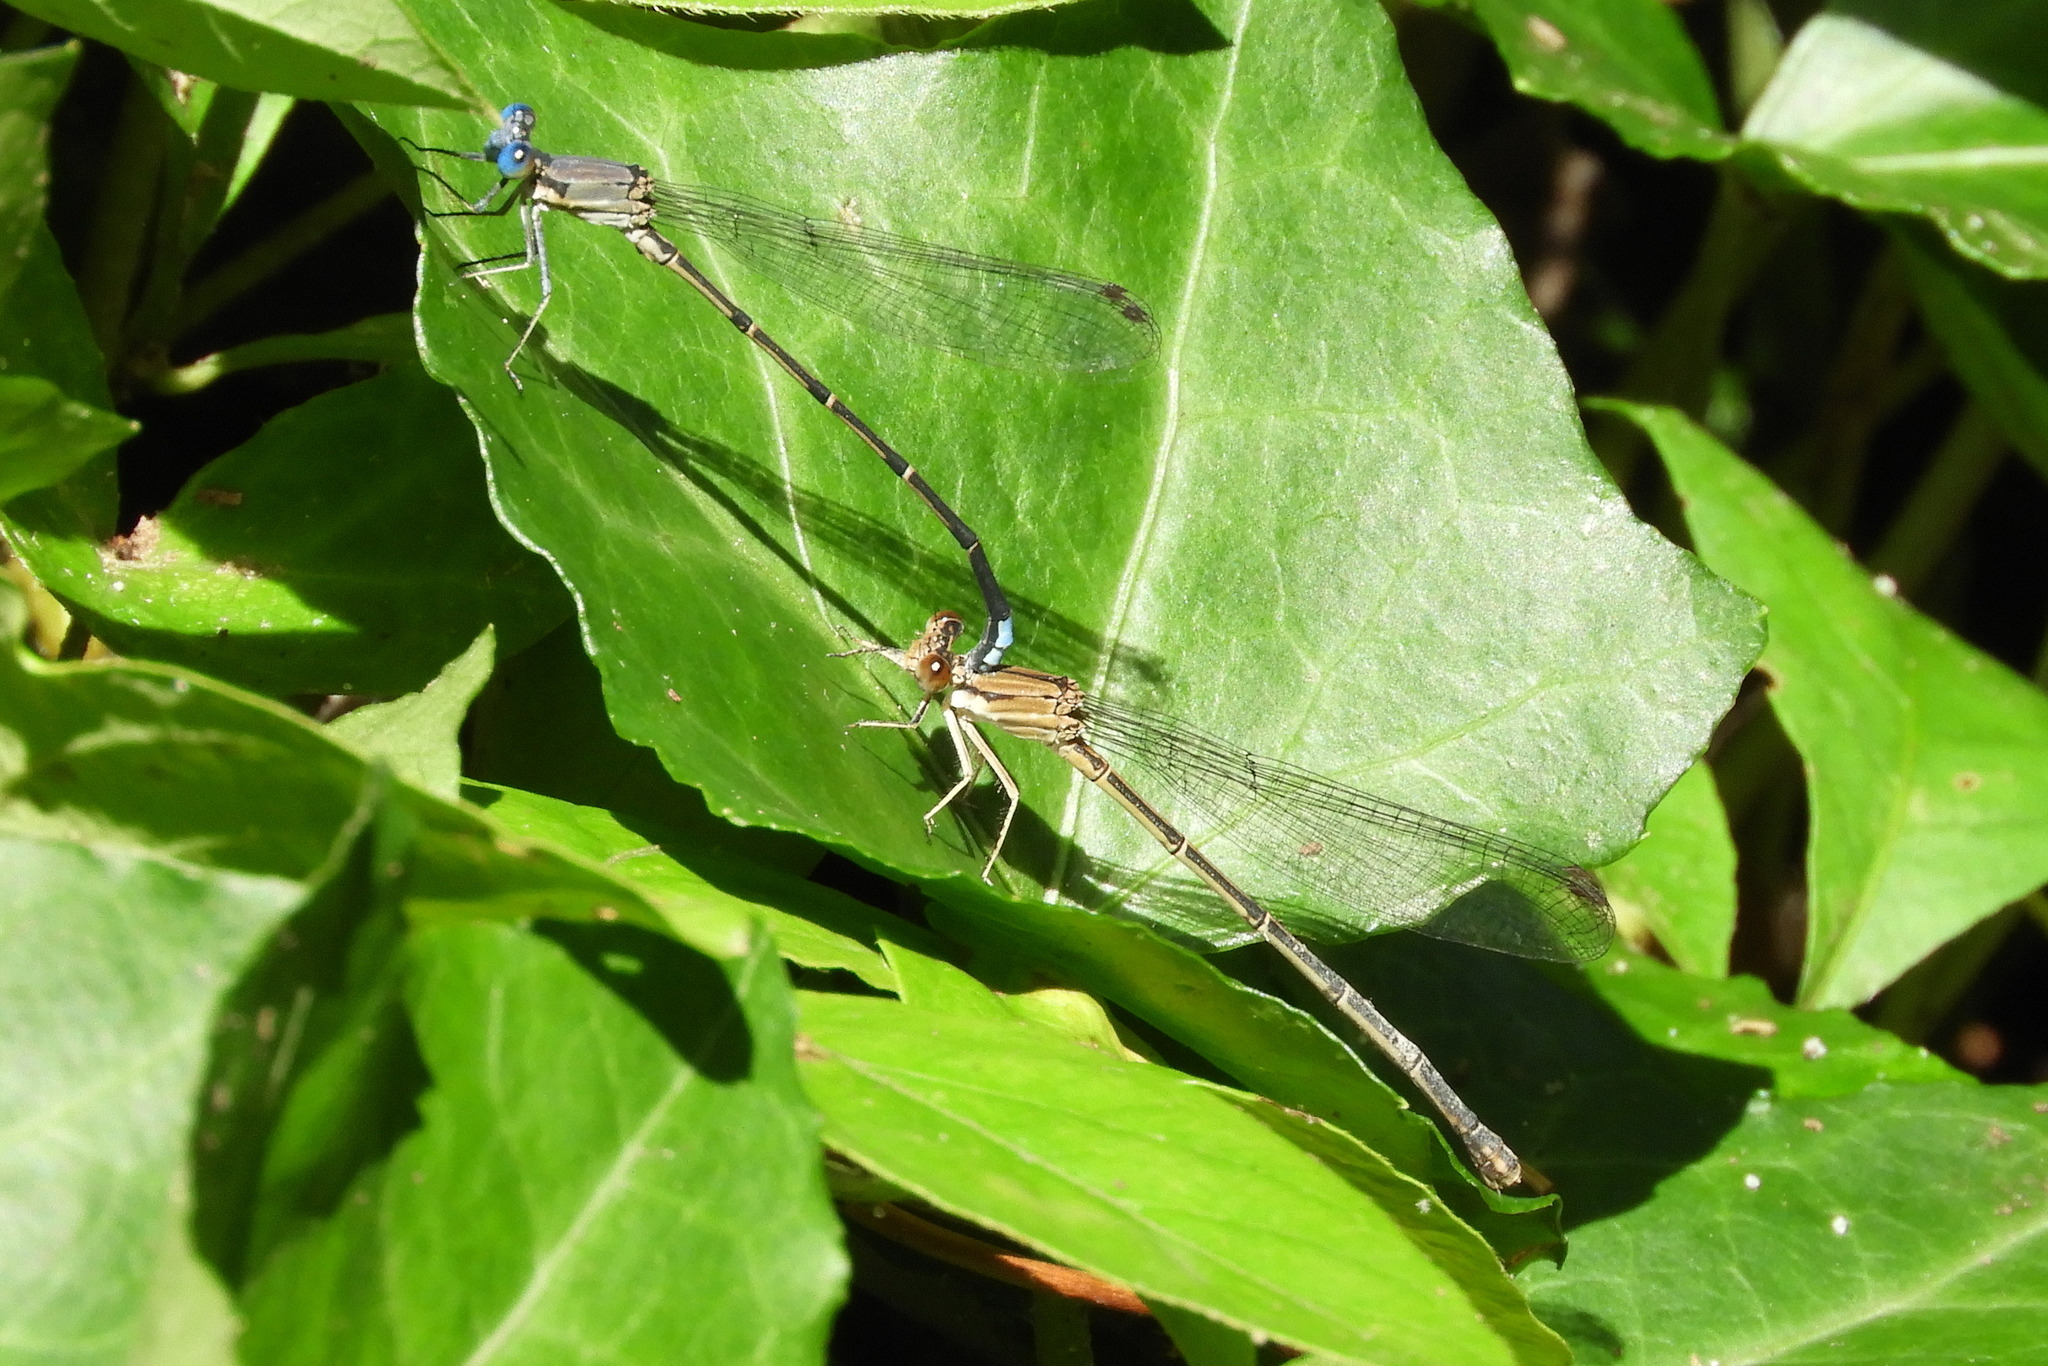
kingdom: Animalia
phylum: Arthropoda
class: Insecta
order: Odonata
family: Coenagrionidae
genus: Argia
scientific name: Argia apicalis
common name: Blue-fronted dancer
